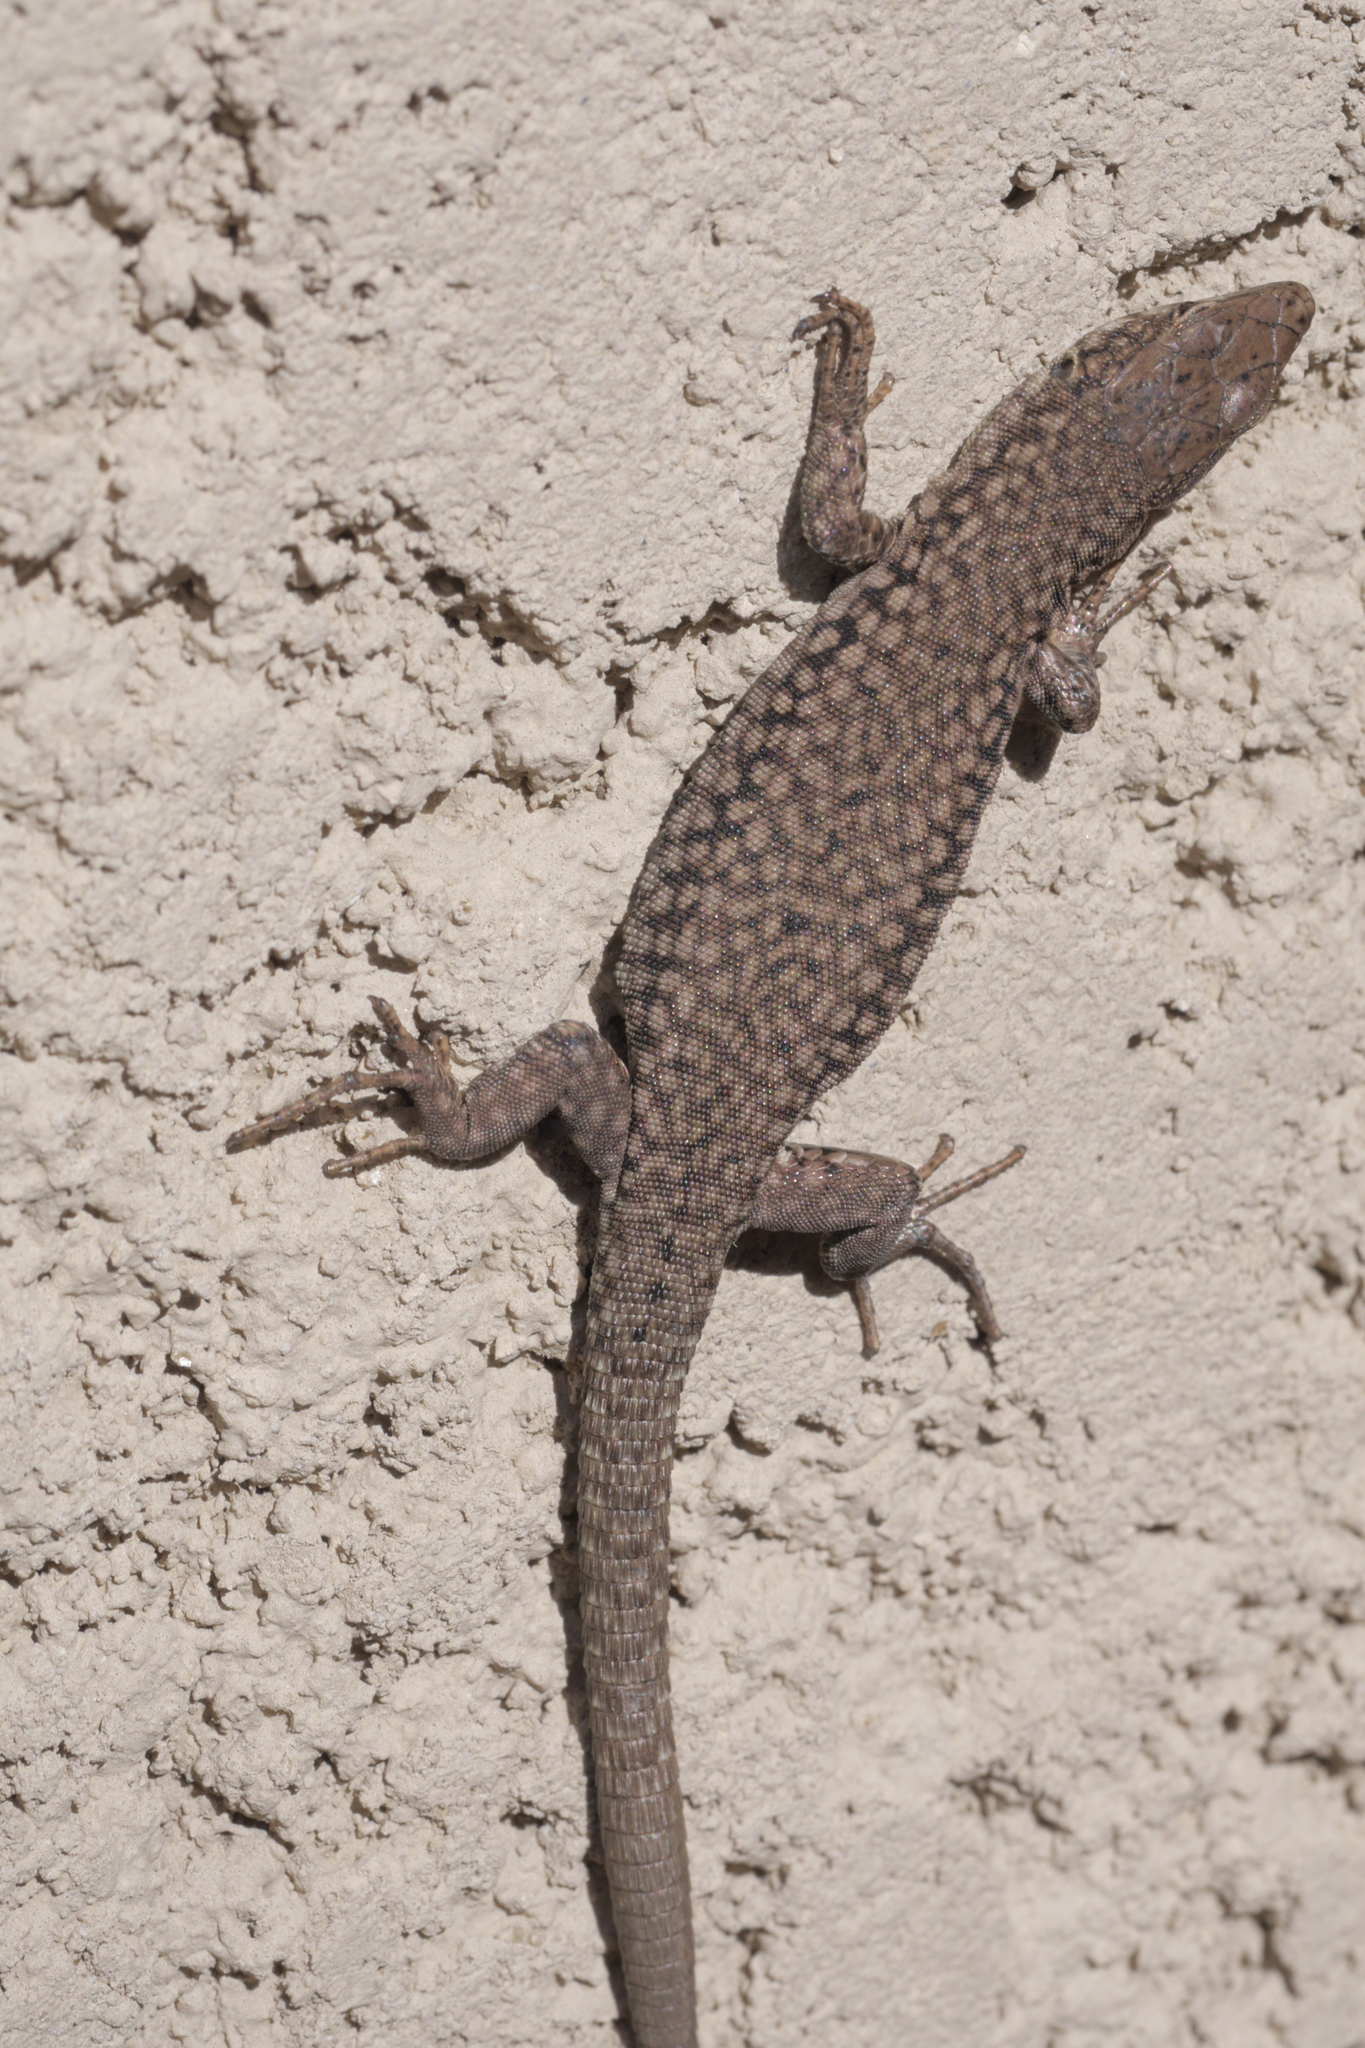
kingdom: Animalia
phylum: Chordata
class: Squamata
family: Lacertidae
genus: Podarcis
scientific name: Podarcis liolepis
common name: Catalonian wall lizard
